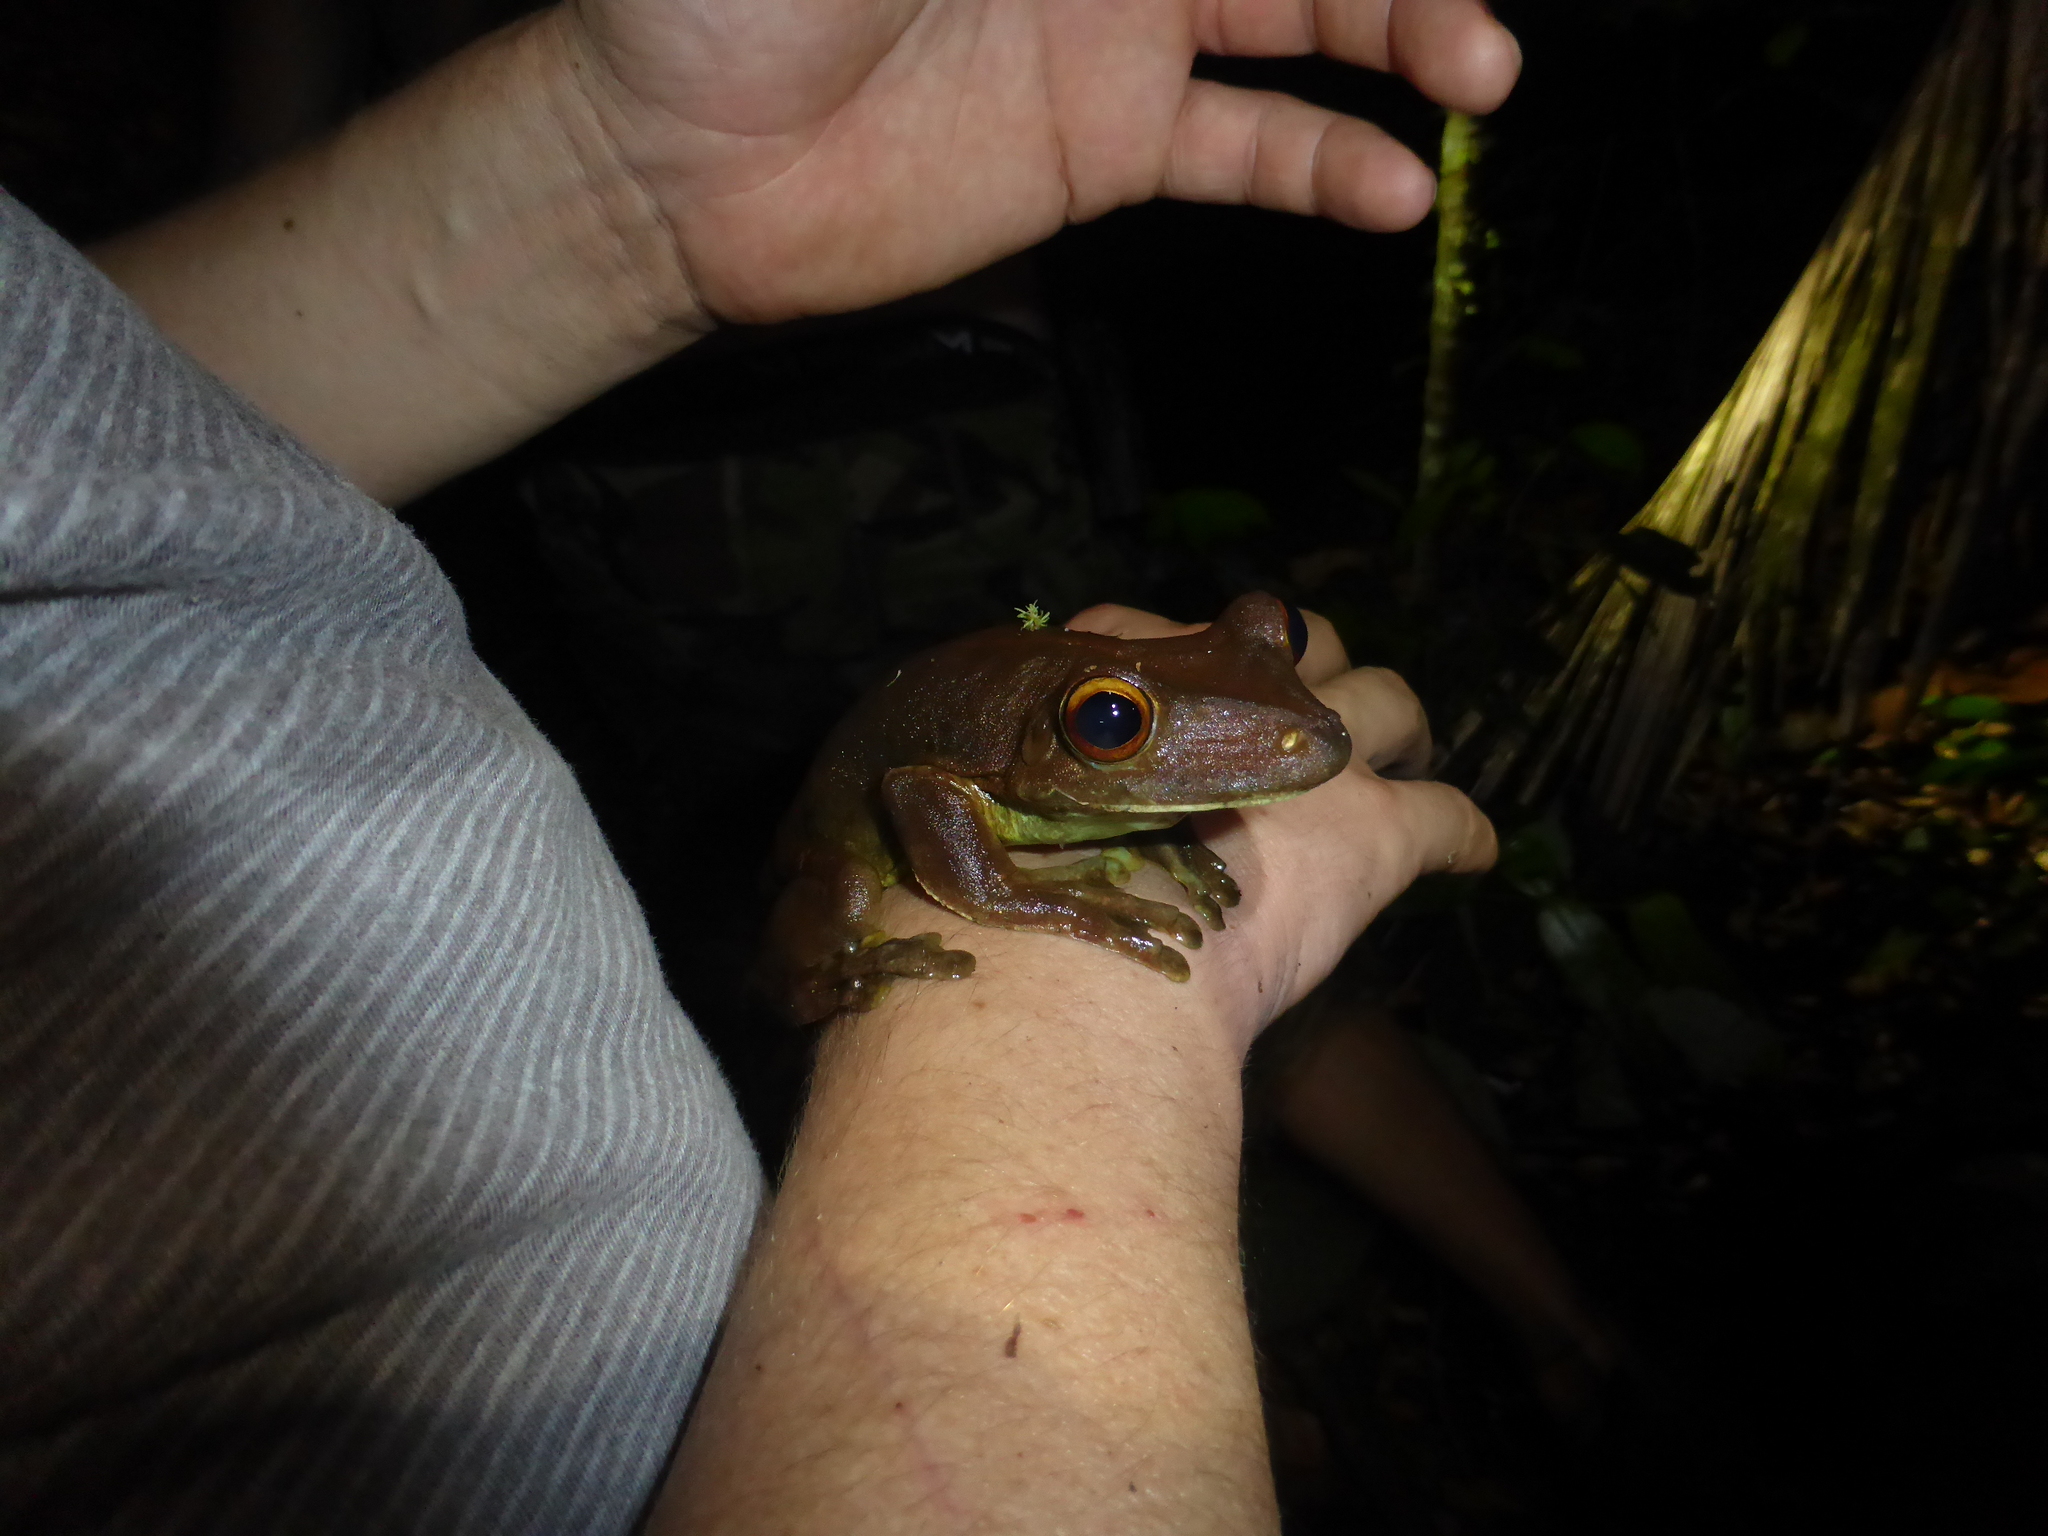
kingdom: Animalia
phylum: Chordata
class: Amphibia
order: Anura
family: Hylidae
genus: Boana
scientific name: Boana boans
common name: Giant gladiator treefrog
